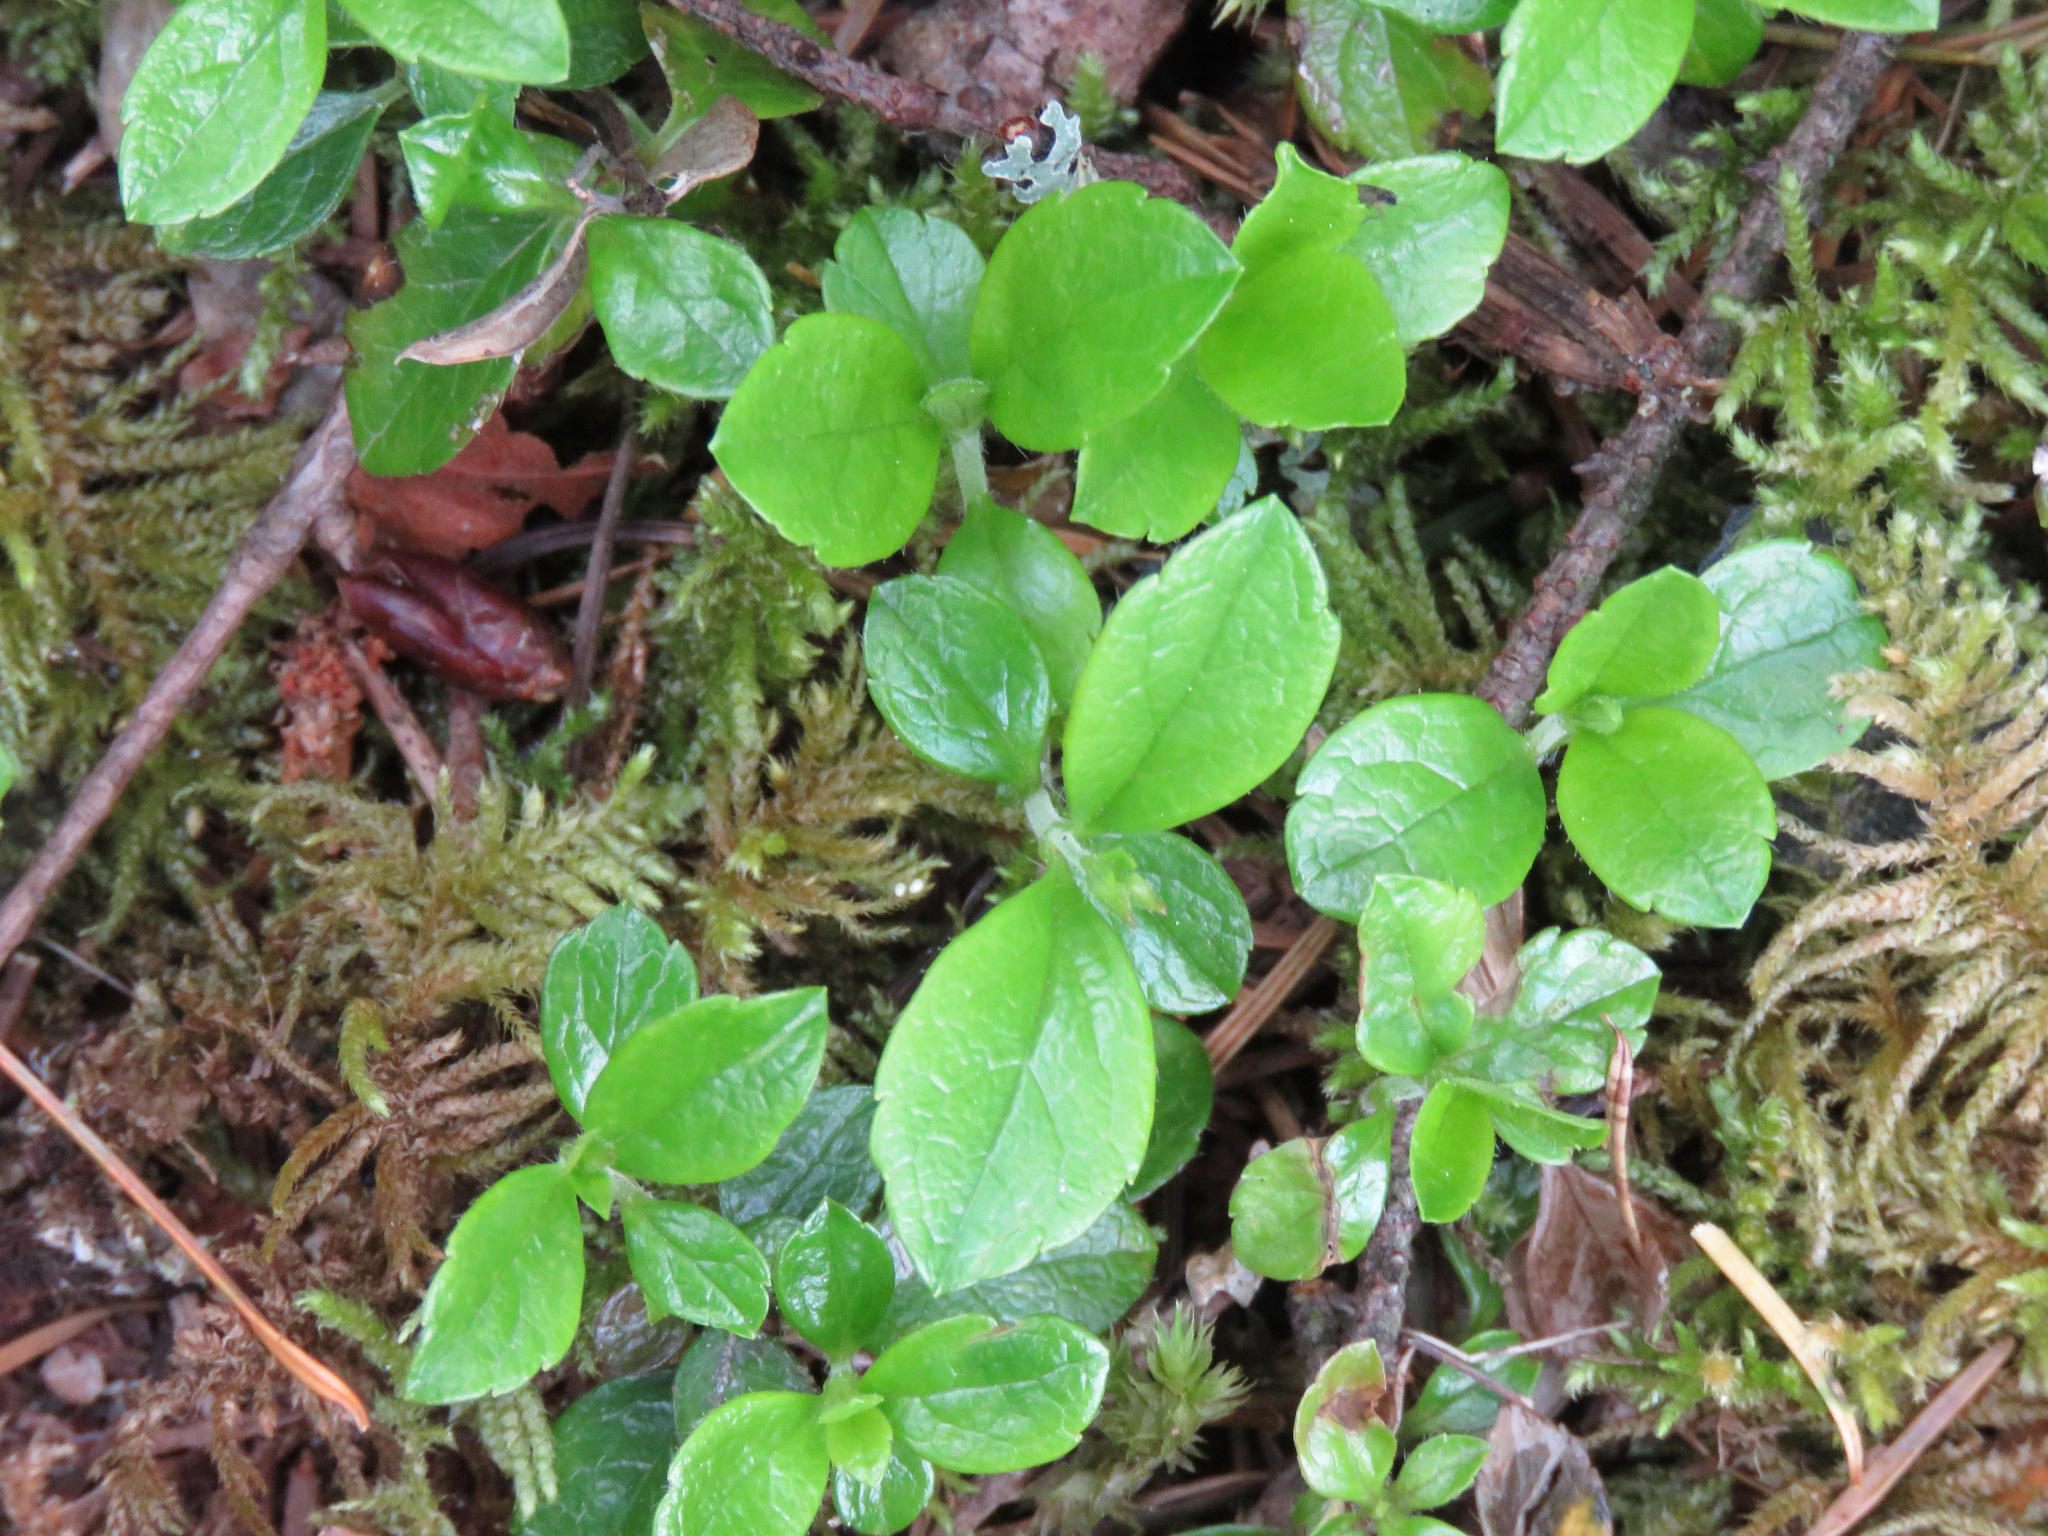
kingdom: Plantae
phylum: Tracheophyta
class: Magnoliopsida
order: Dipsacales
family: Caprifoliaceae
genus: Linnaea
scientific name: Linnaea borealis
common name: Twinflower
